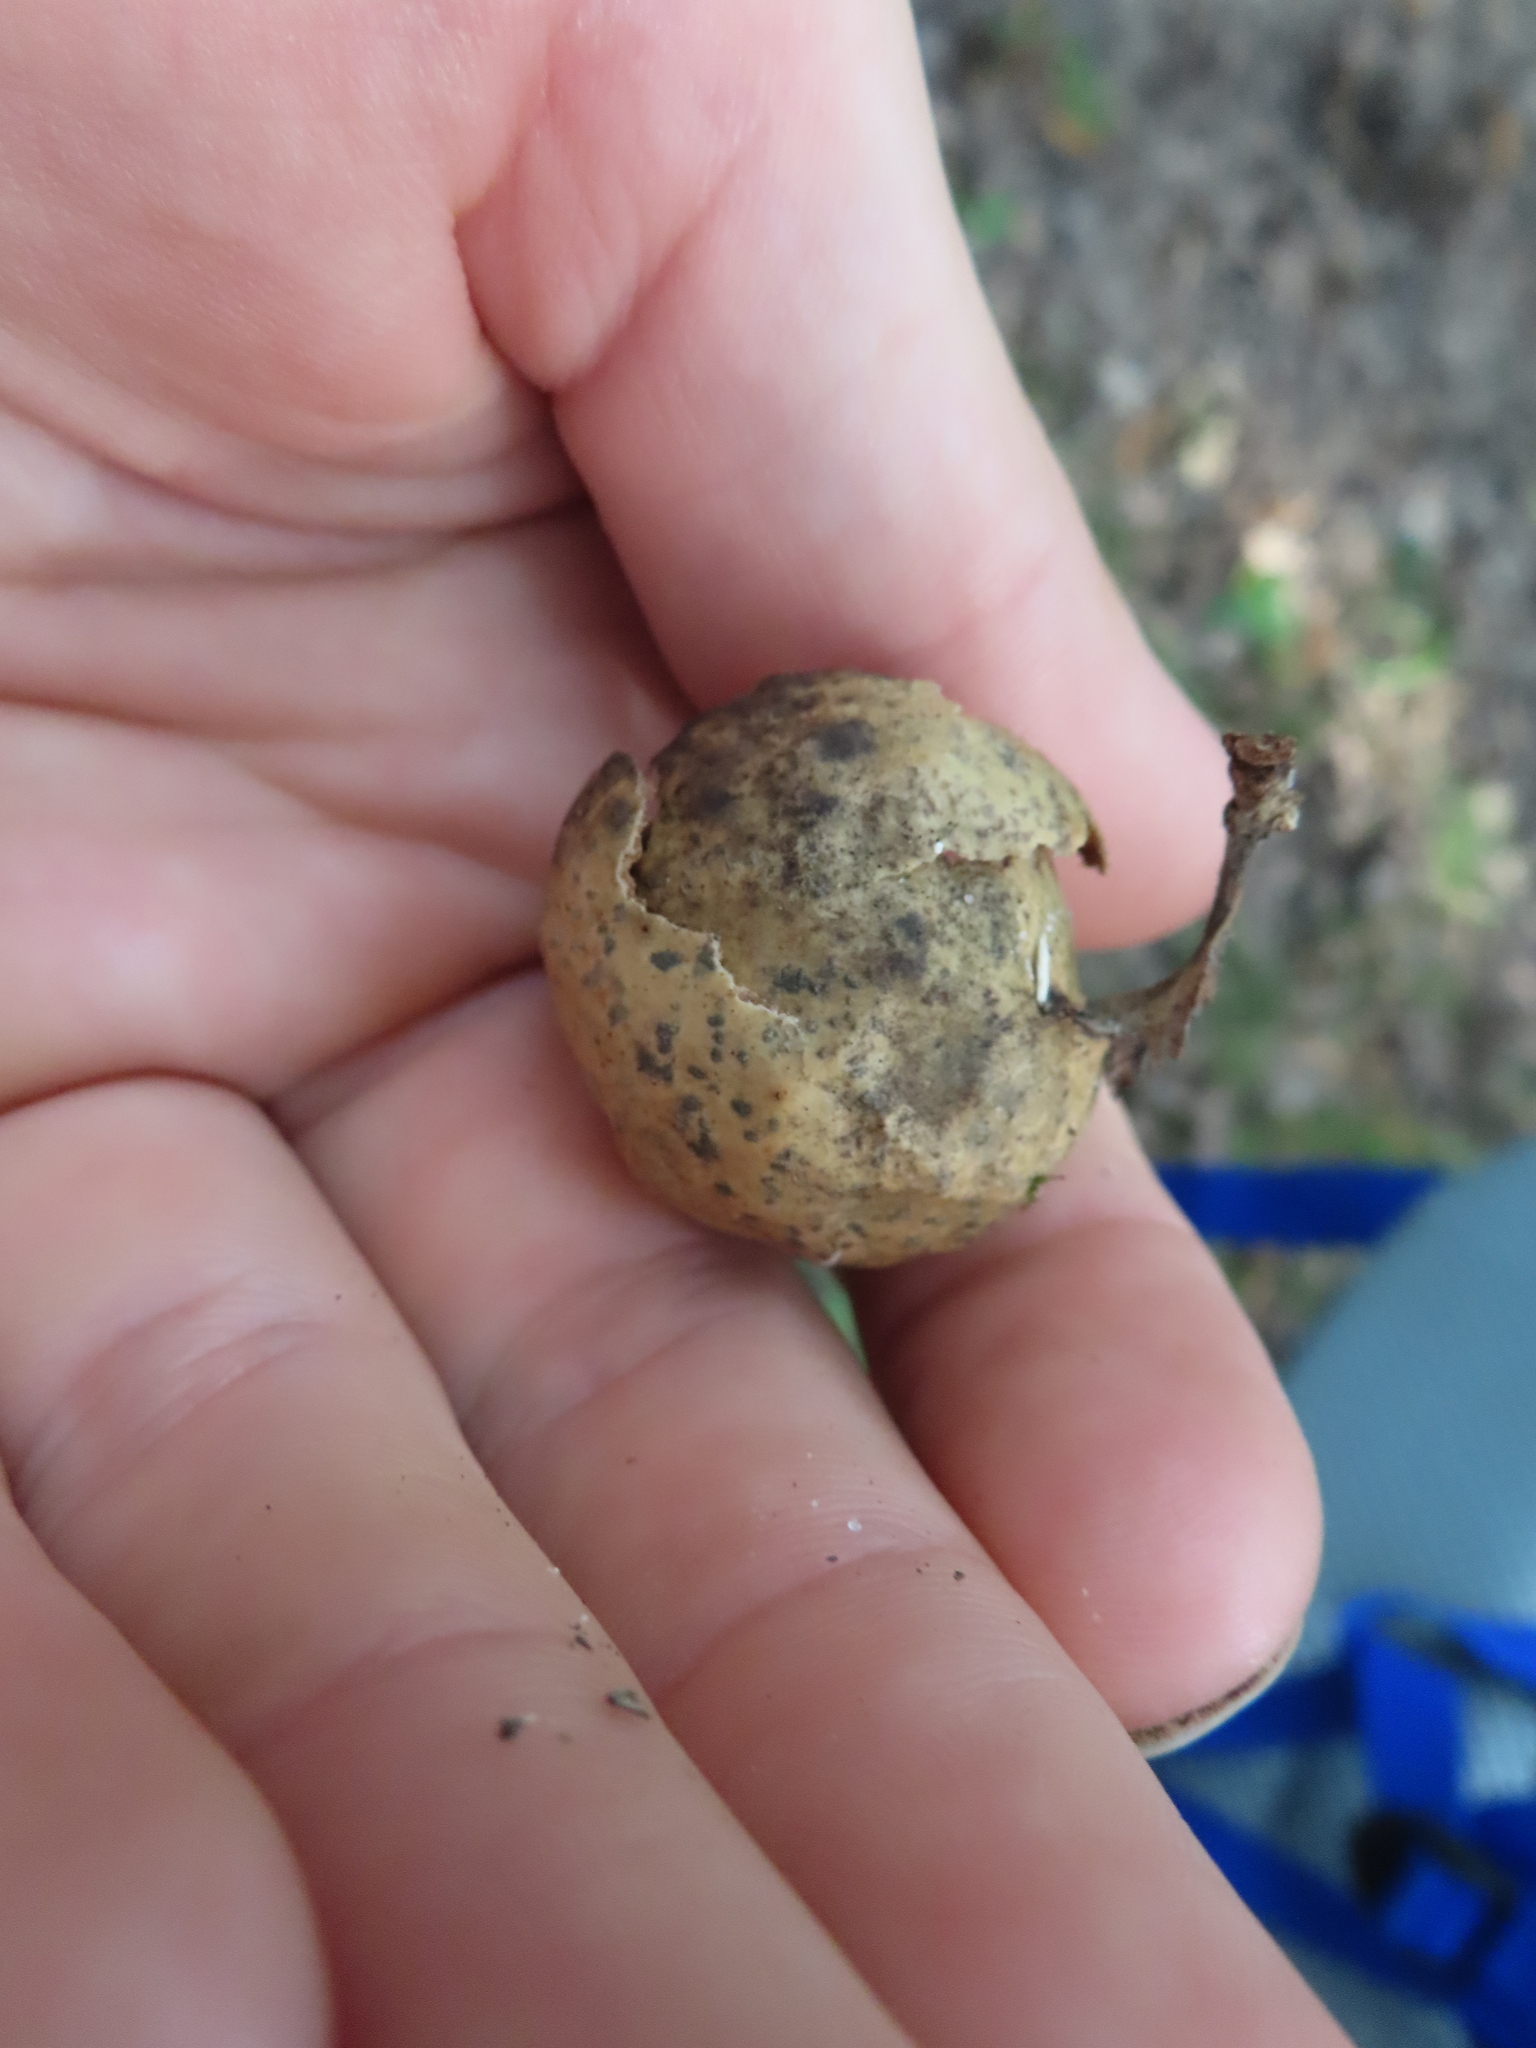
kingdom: Animalia
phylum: Arthropoda
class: Insecta
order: Hymenoptera
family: Cynipidae
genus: Amphibolips
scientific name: Amphibolips
